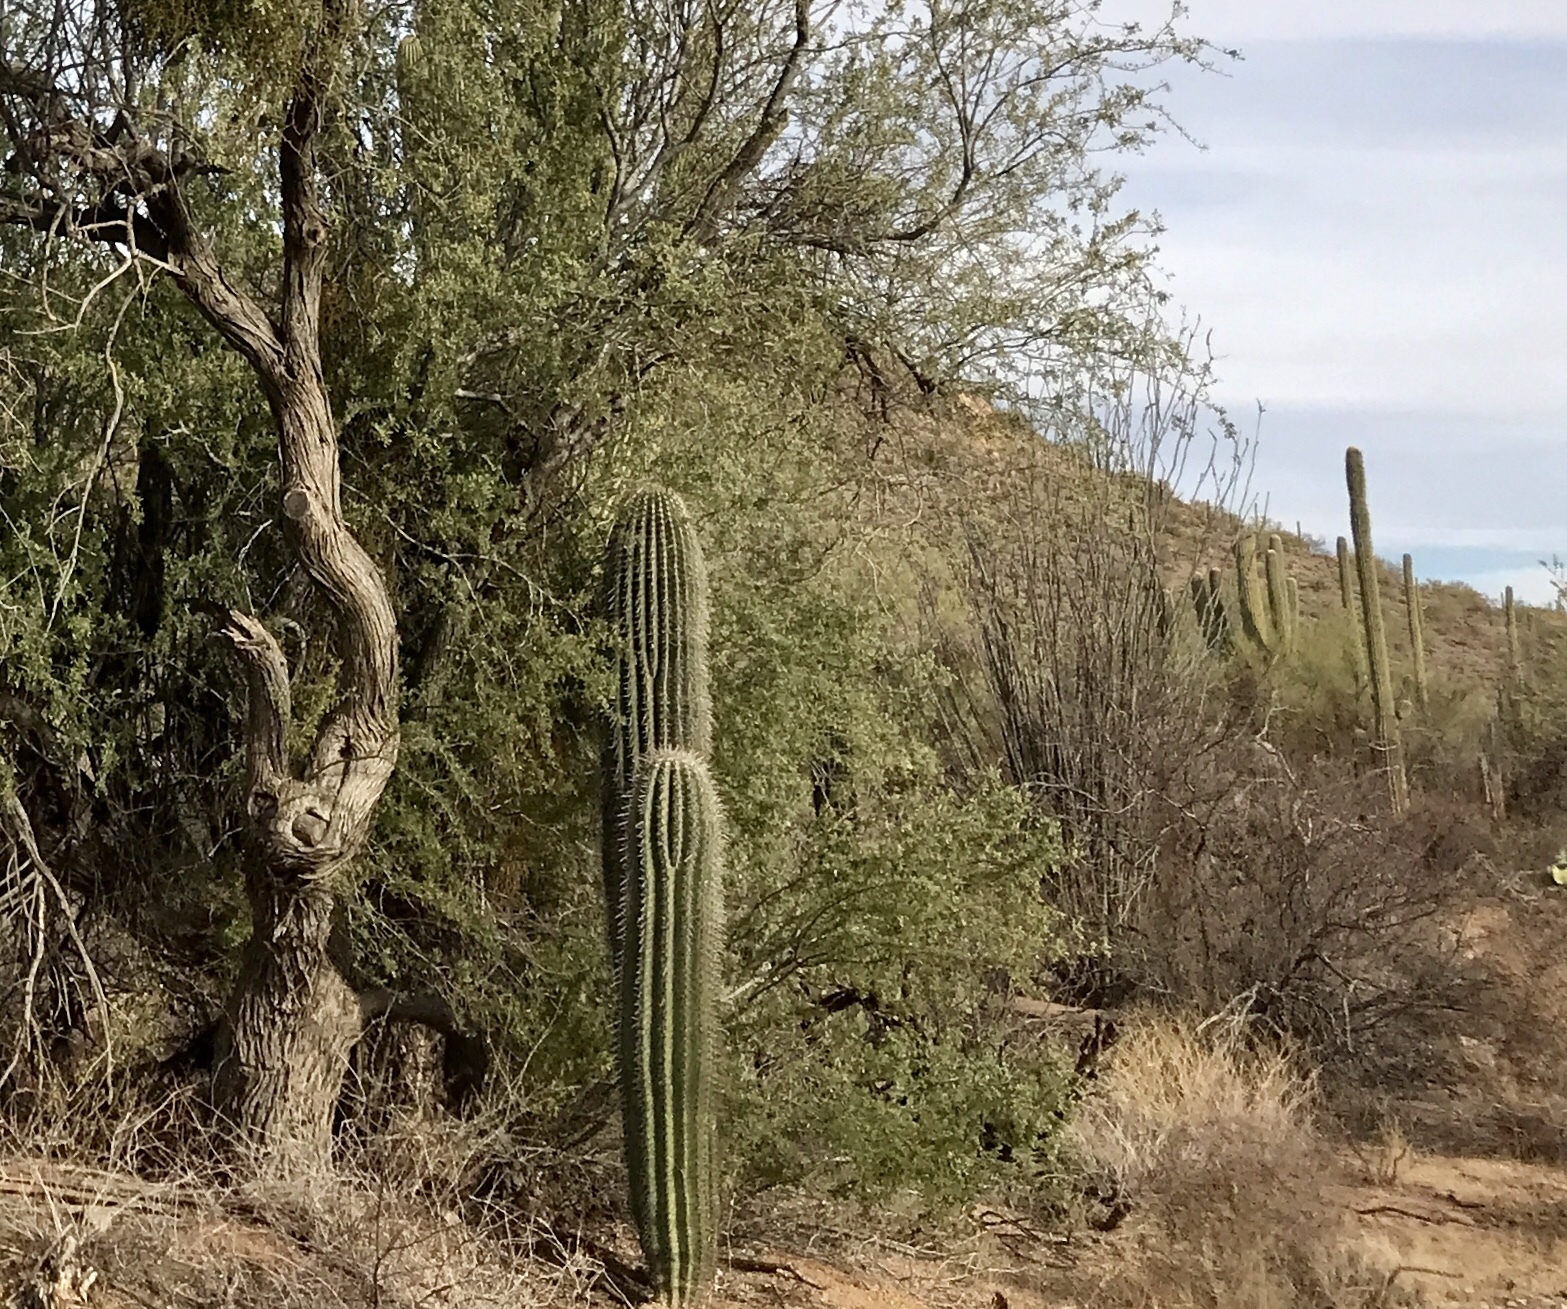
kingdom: Plantae
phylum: Tracheophyta
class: Magnoliopsida
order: Caryophyllales
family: Cactaceae
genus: Carnegiea
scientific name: Carnegiea gigantea
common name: Saguaro
